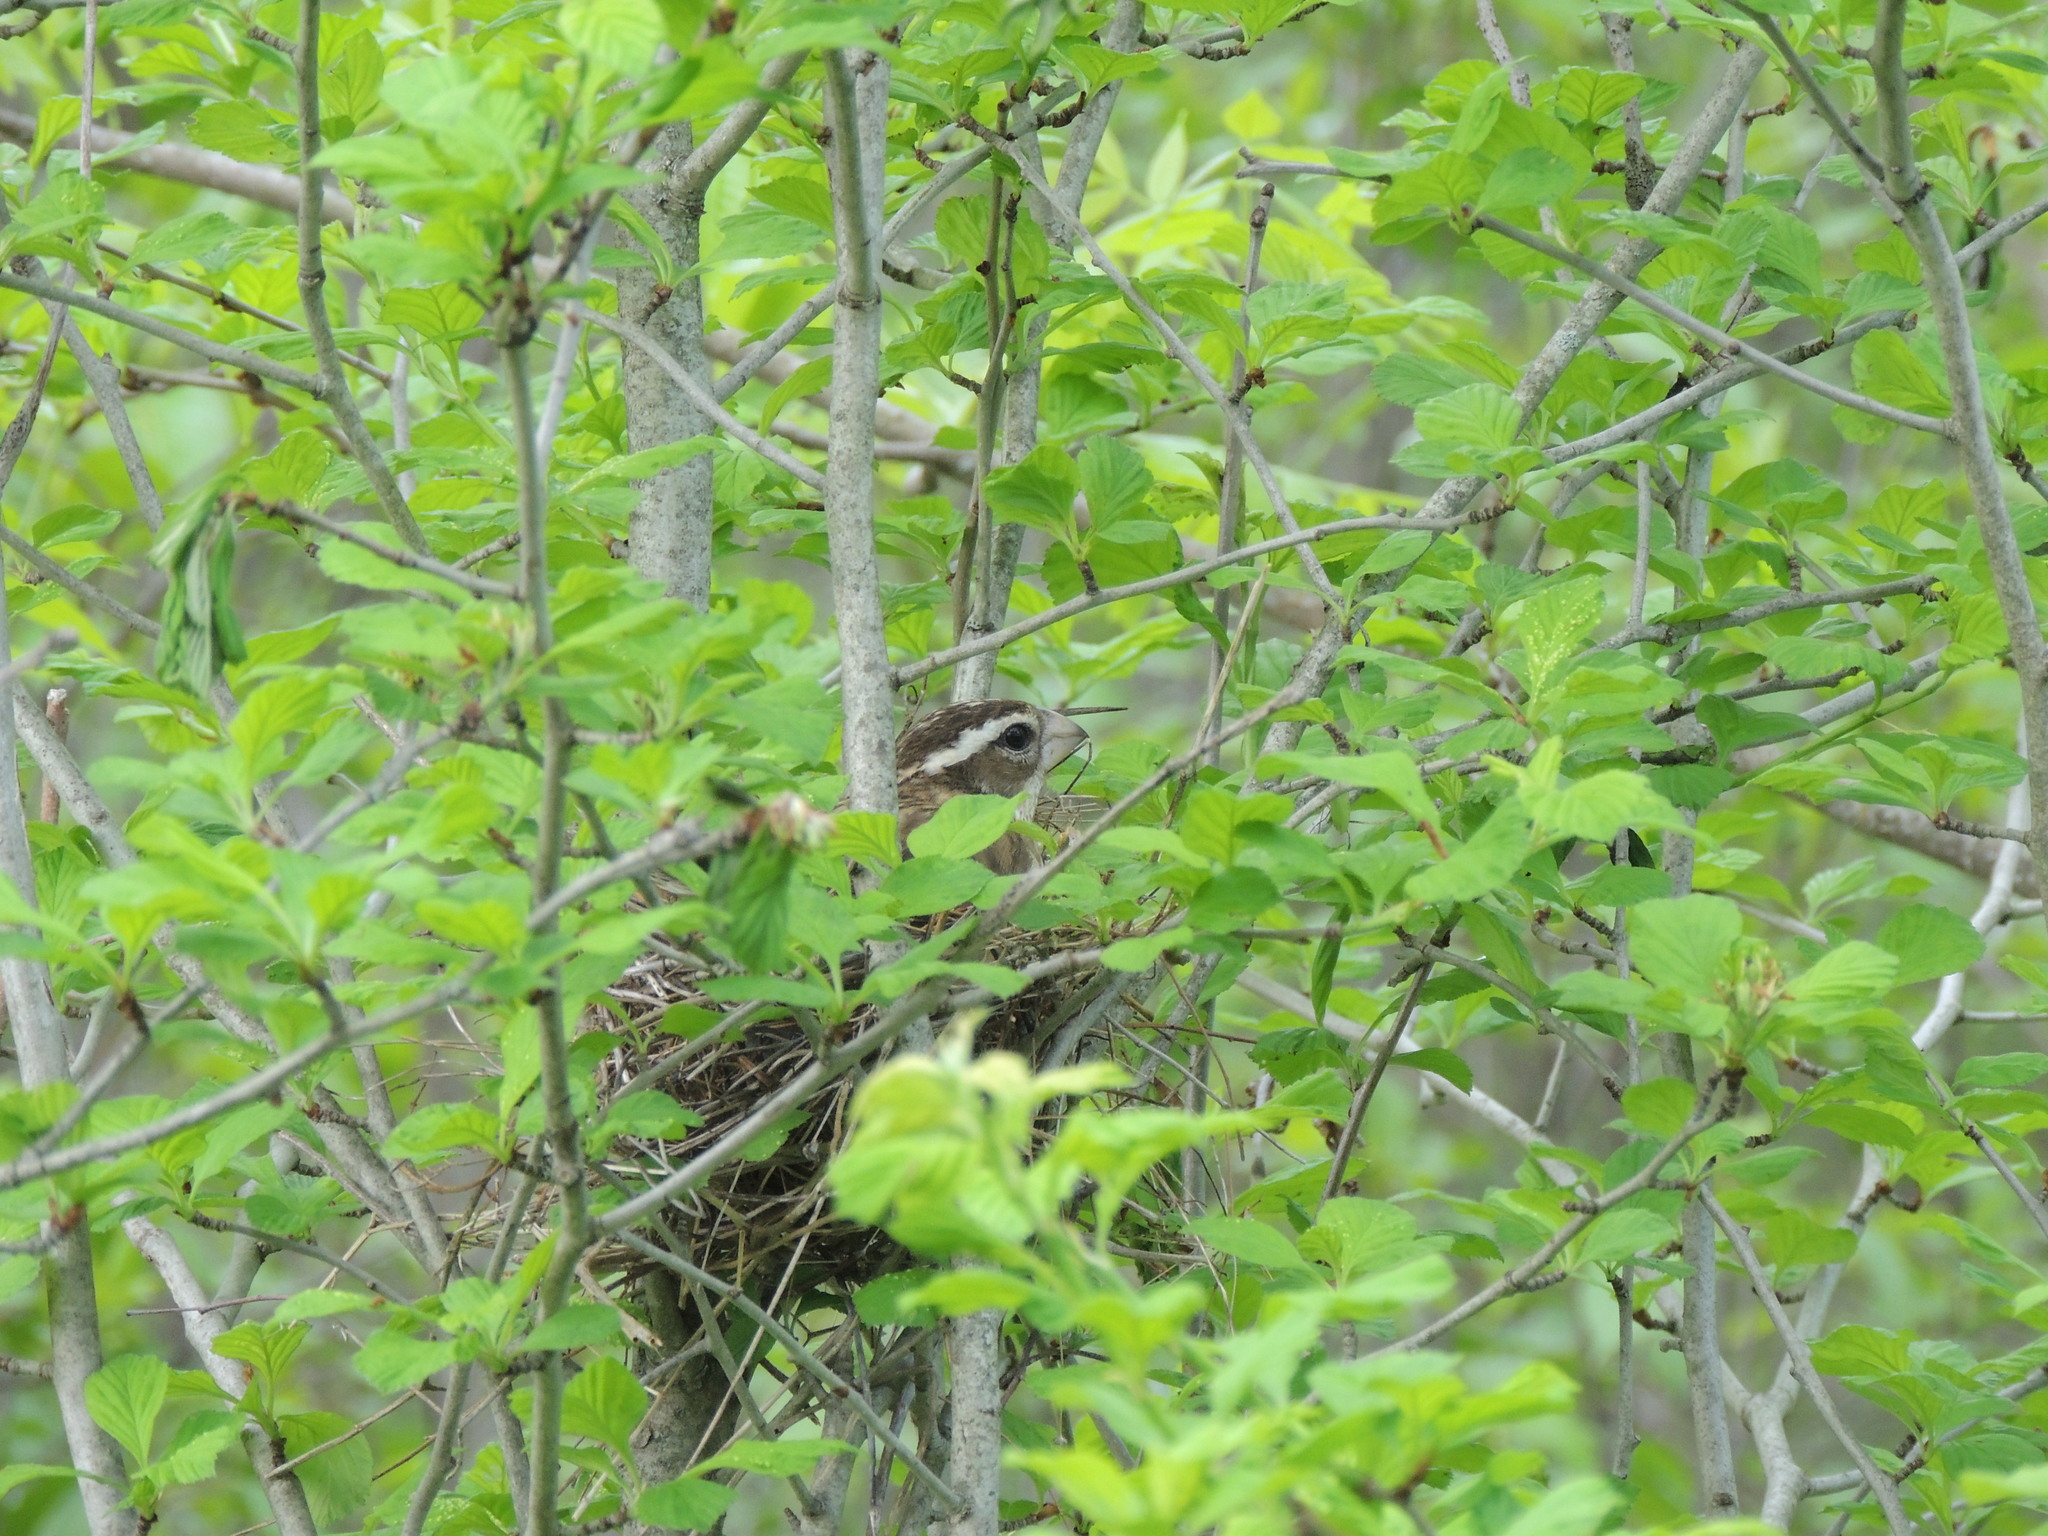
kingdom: Animalia
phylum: Chordata
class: Aves
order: Passeriformes
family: Cardinalidae
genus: Pheucticus
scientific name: Pheucticus ludovicianus
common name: Rose-breasted grosbeak
